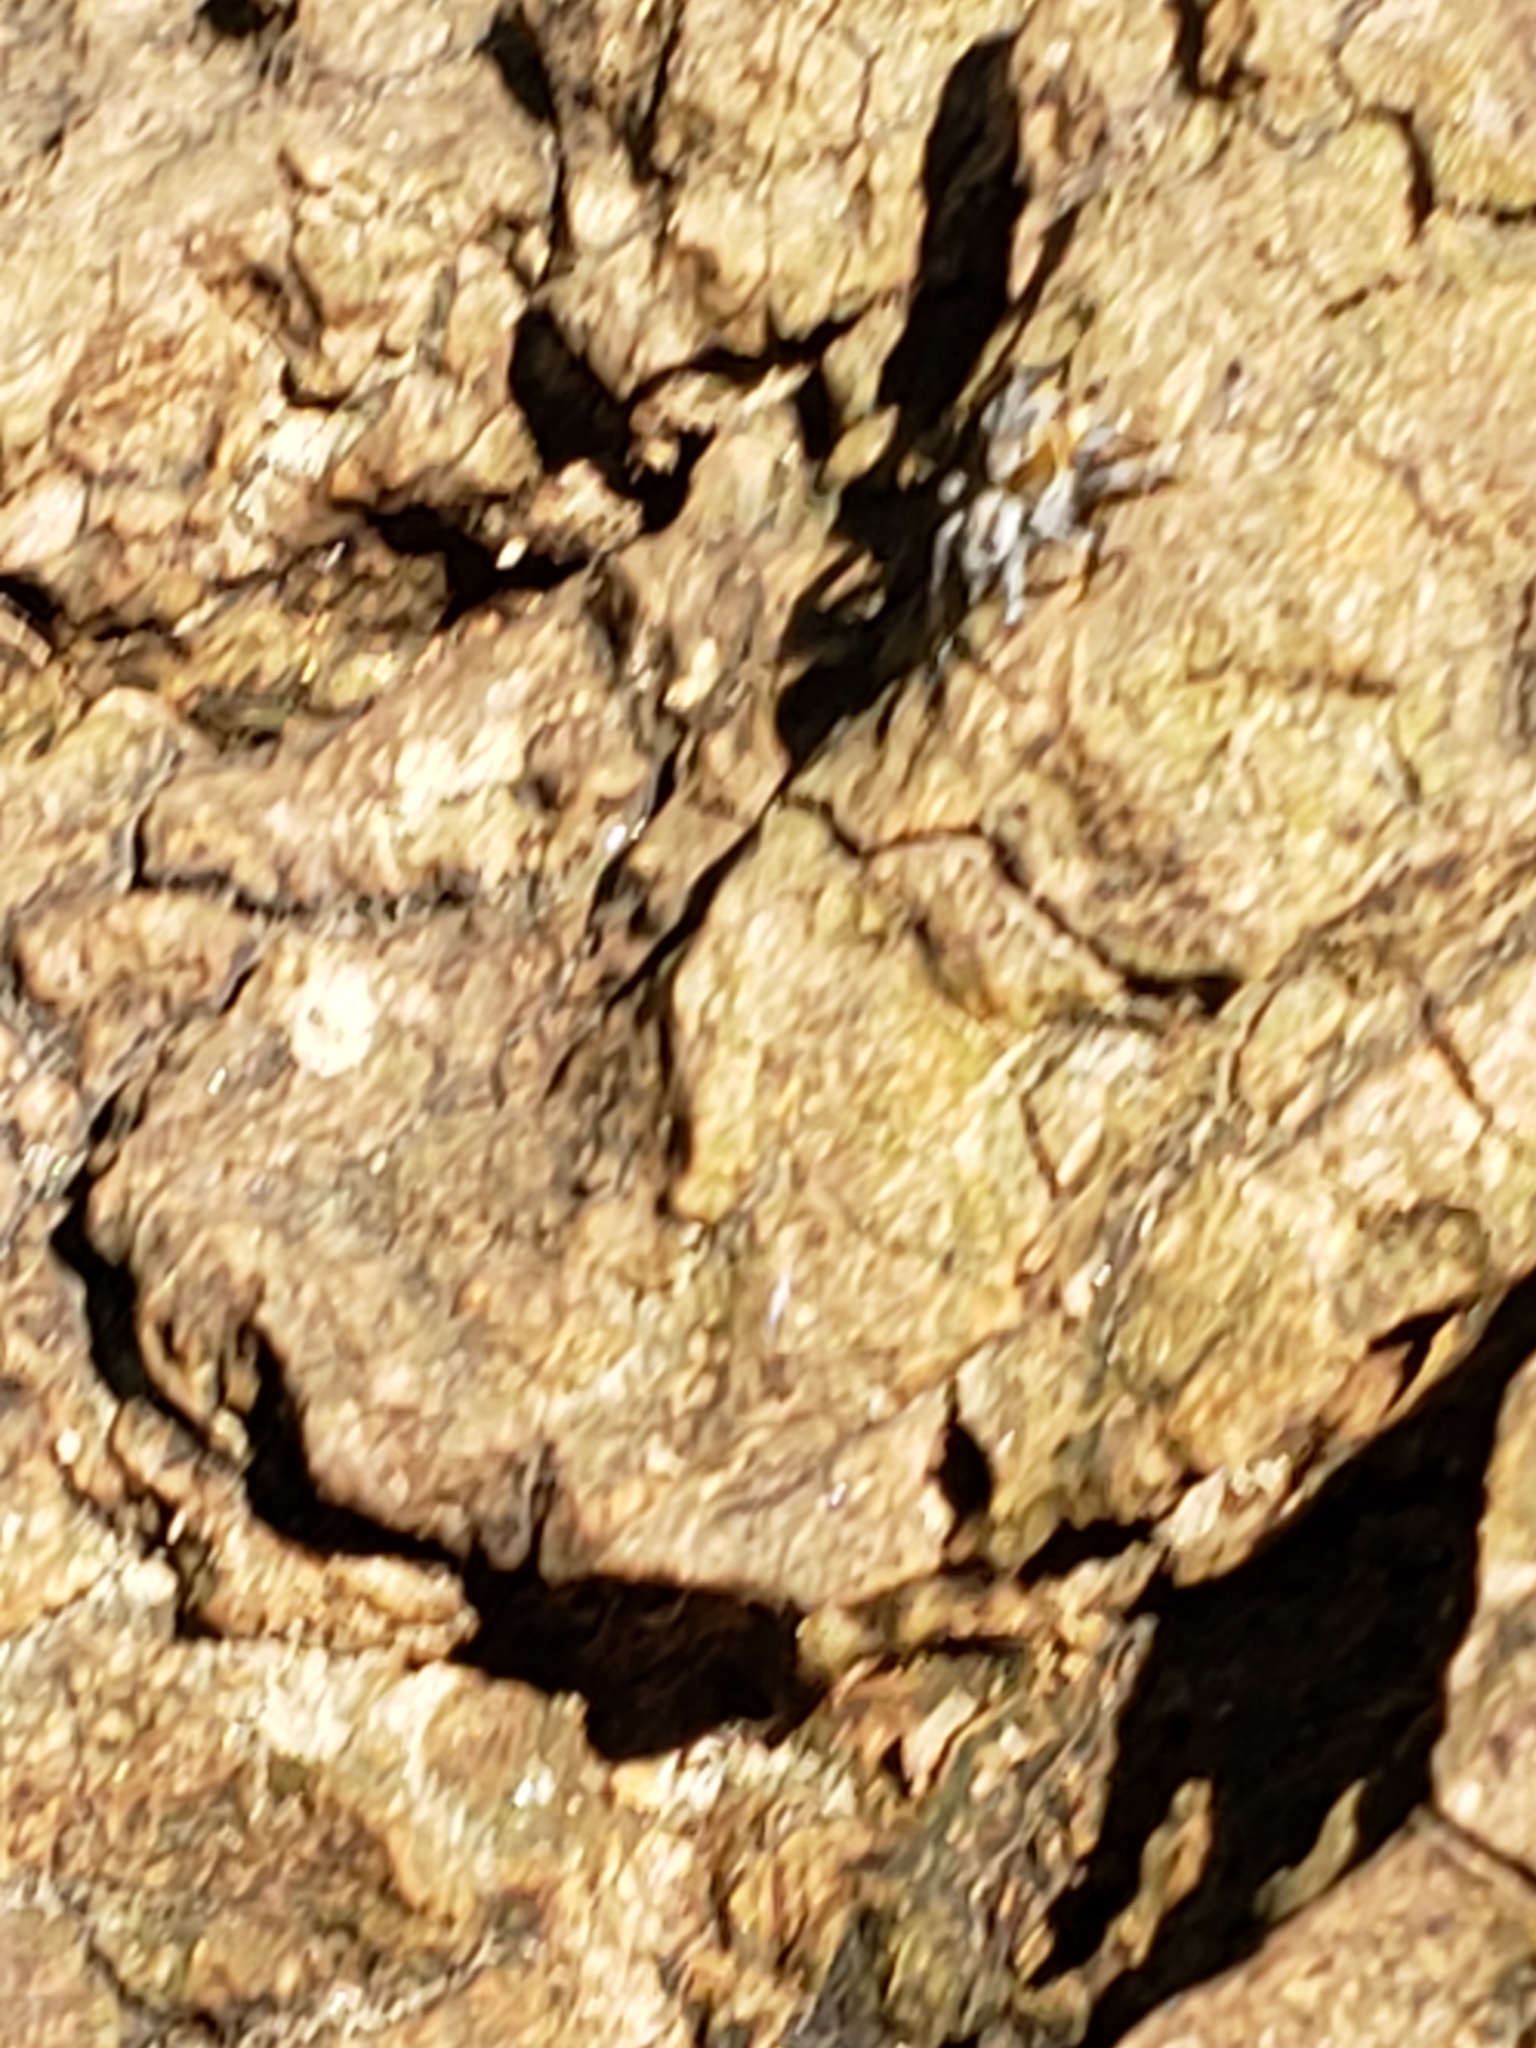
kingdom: Animalia
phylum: Arthropoda
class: Arachnida
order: Araneae
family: Salticidae
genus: Naphrys
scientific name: Naphrys pulex
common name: Flea jumping spider
